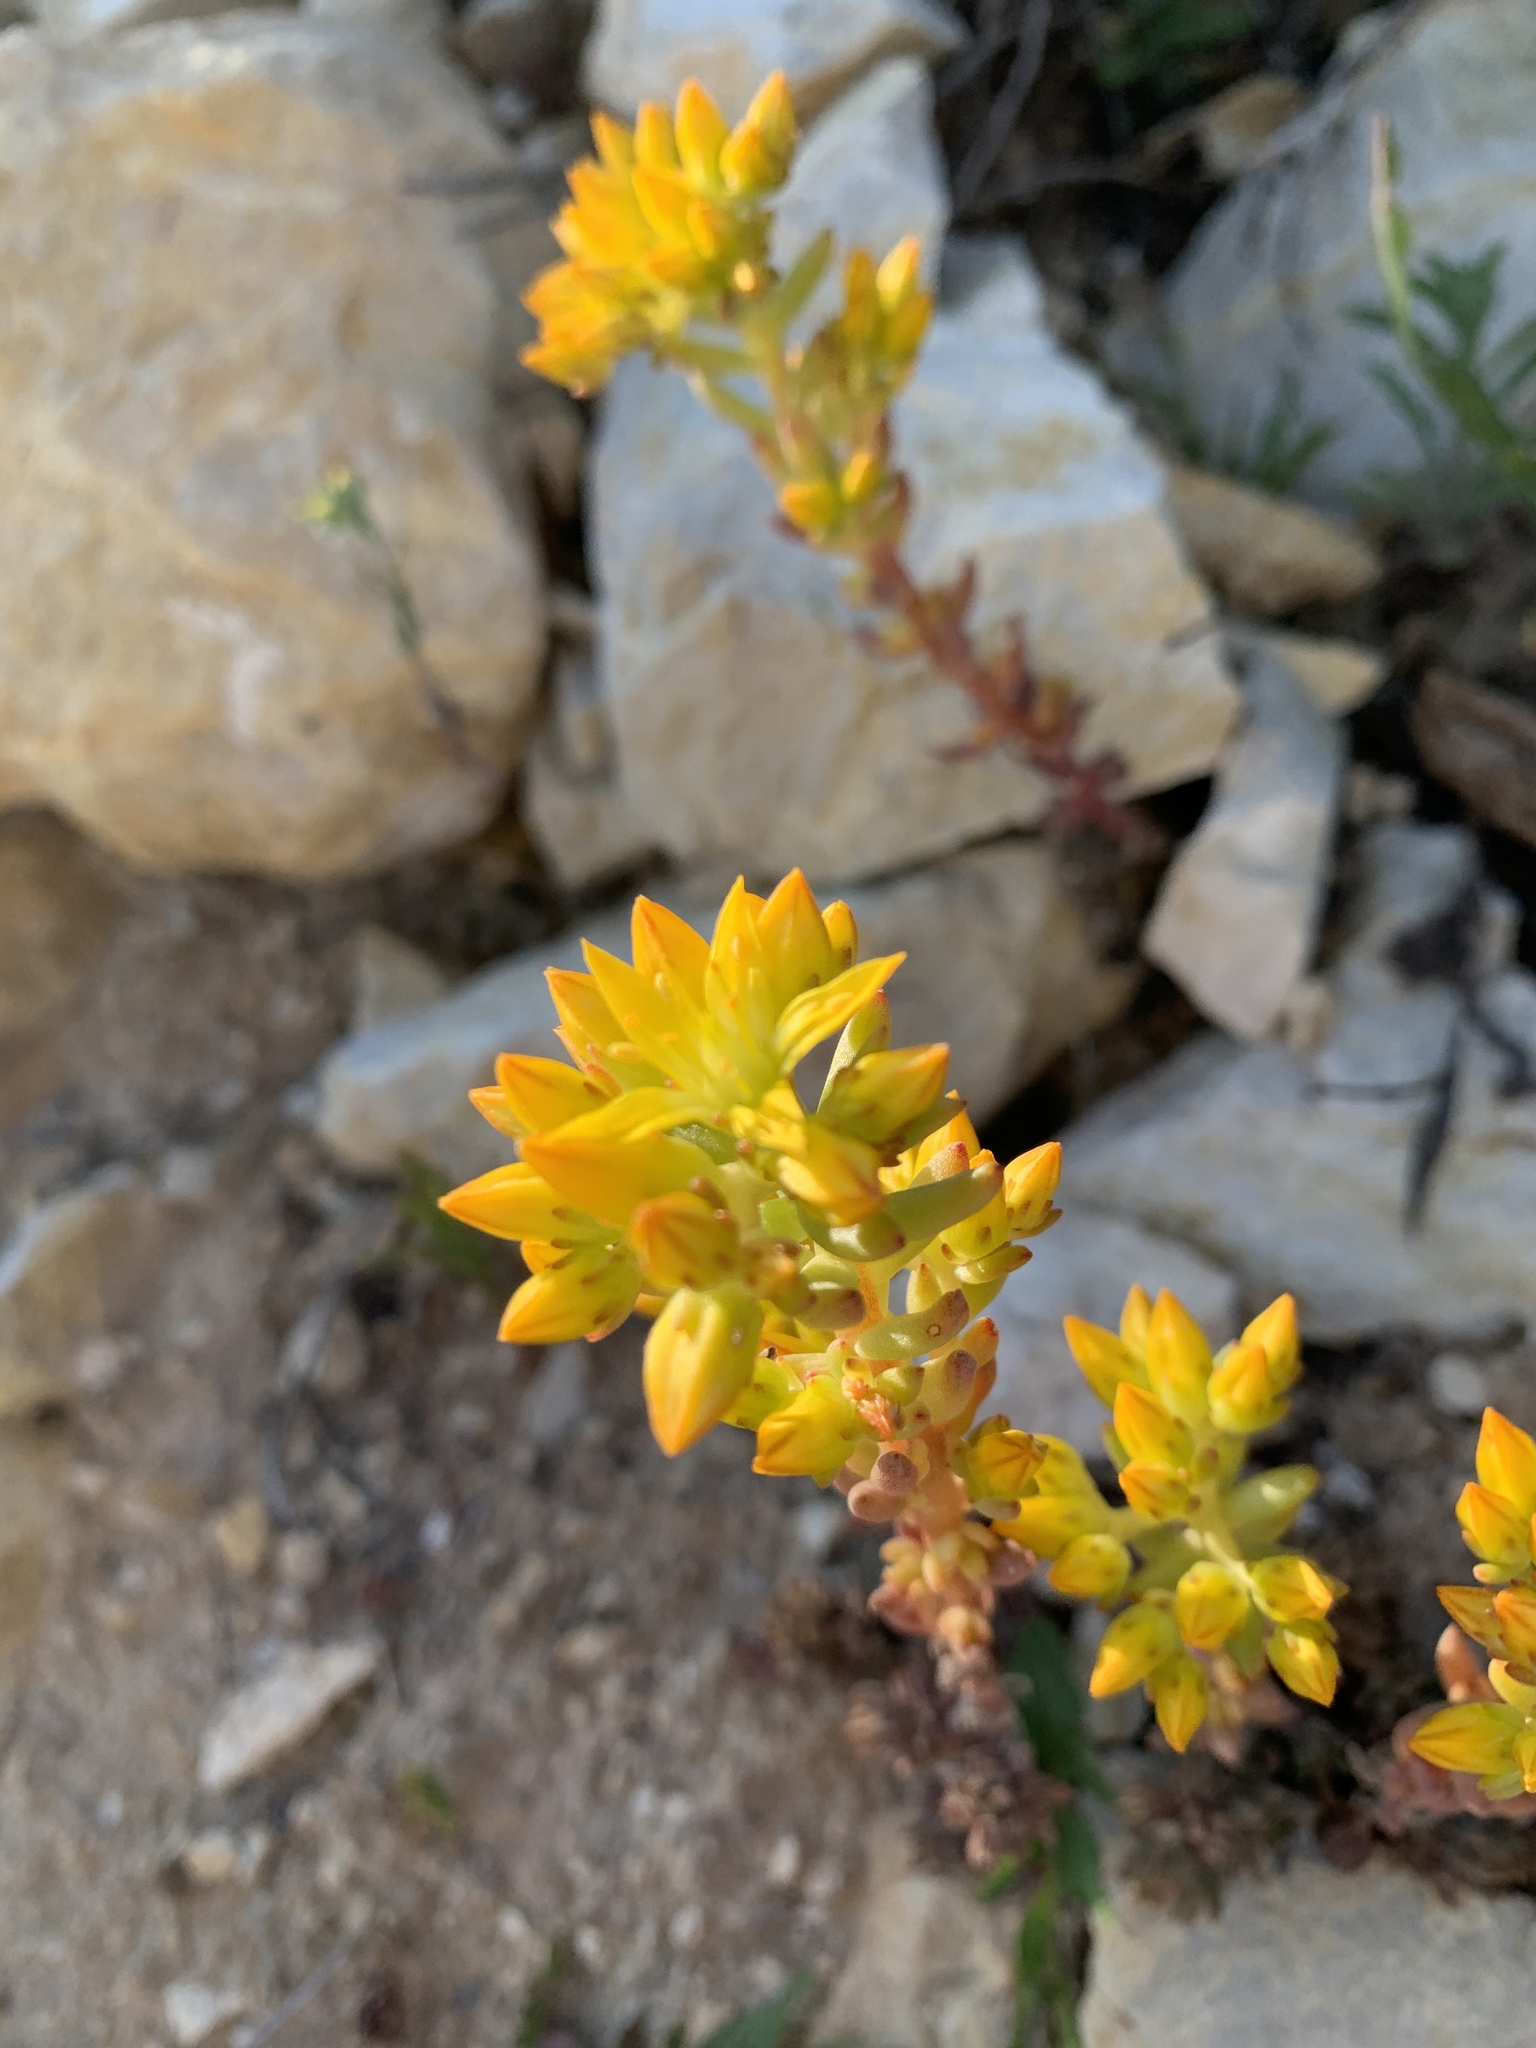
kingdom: Plantae
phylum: Tracheophyta
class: Magnoliopsida
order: Saxifragales
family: Crassulaceae
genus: Sedum
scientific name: Sedum lanceolatum
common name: Common stonecrop
